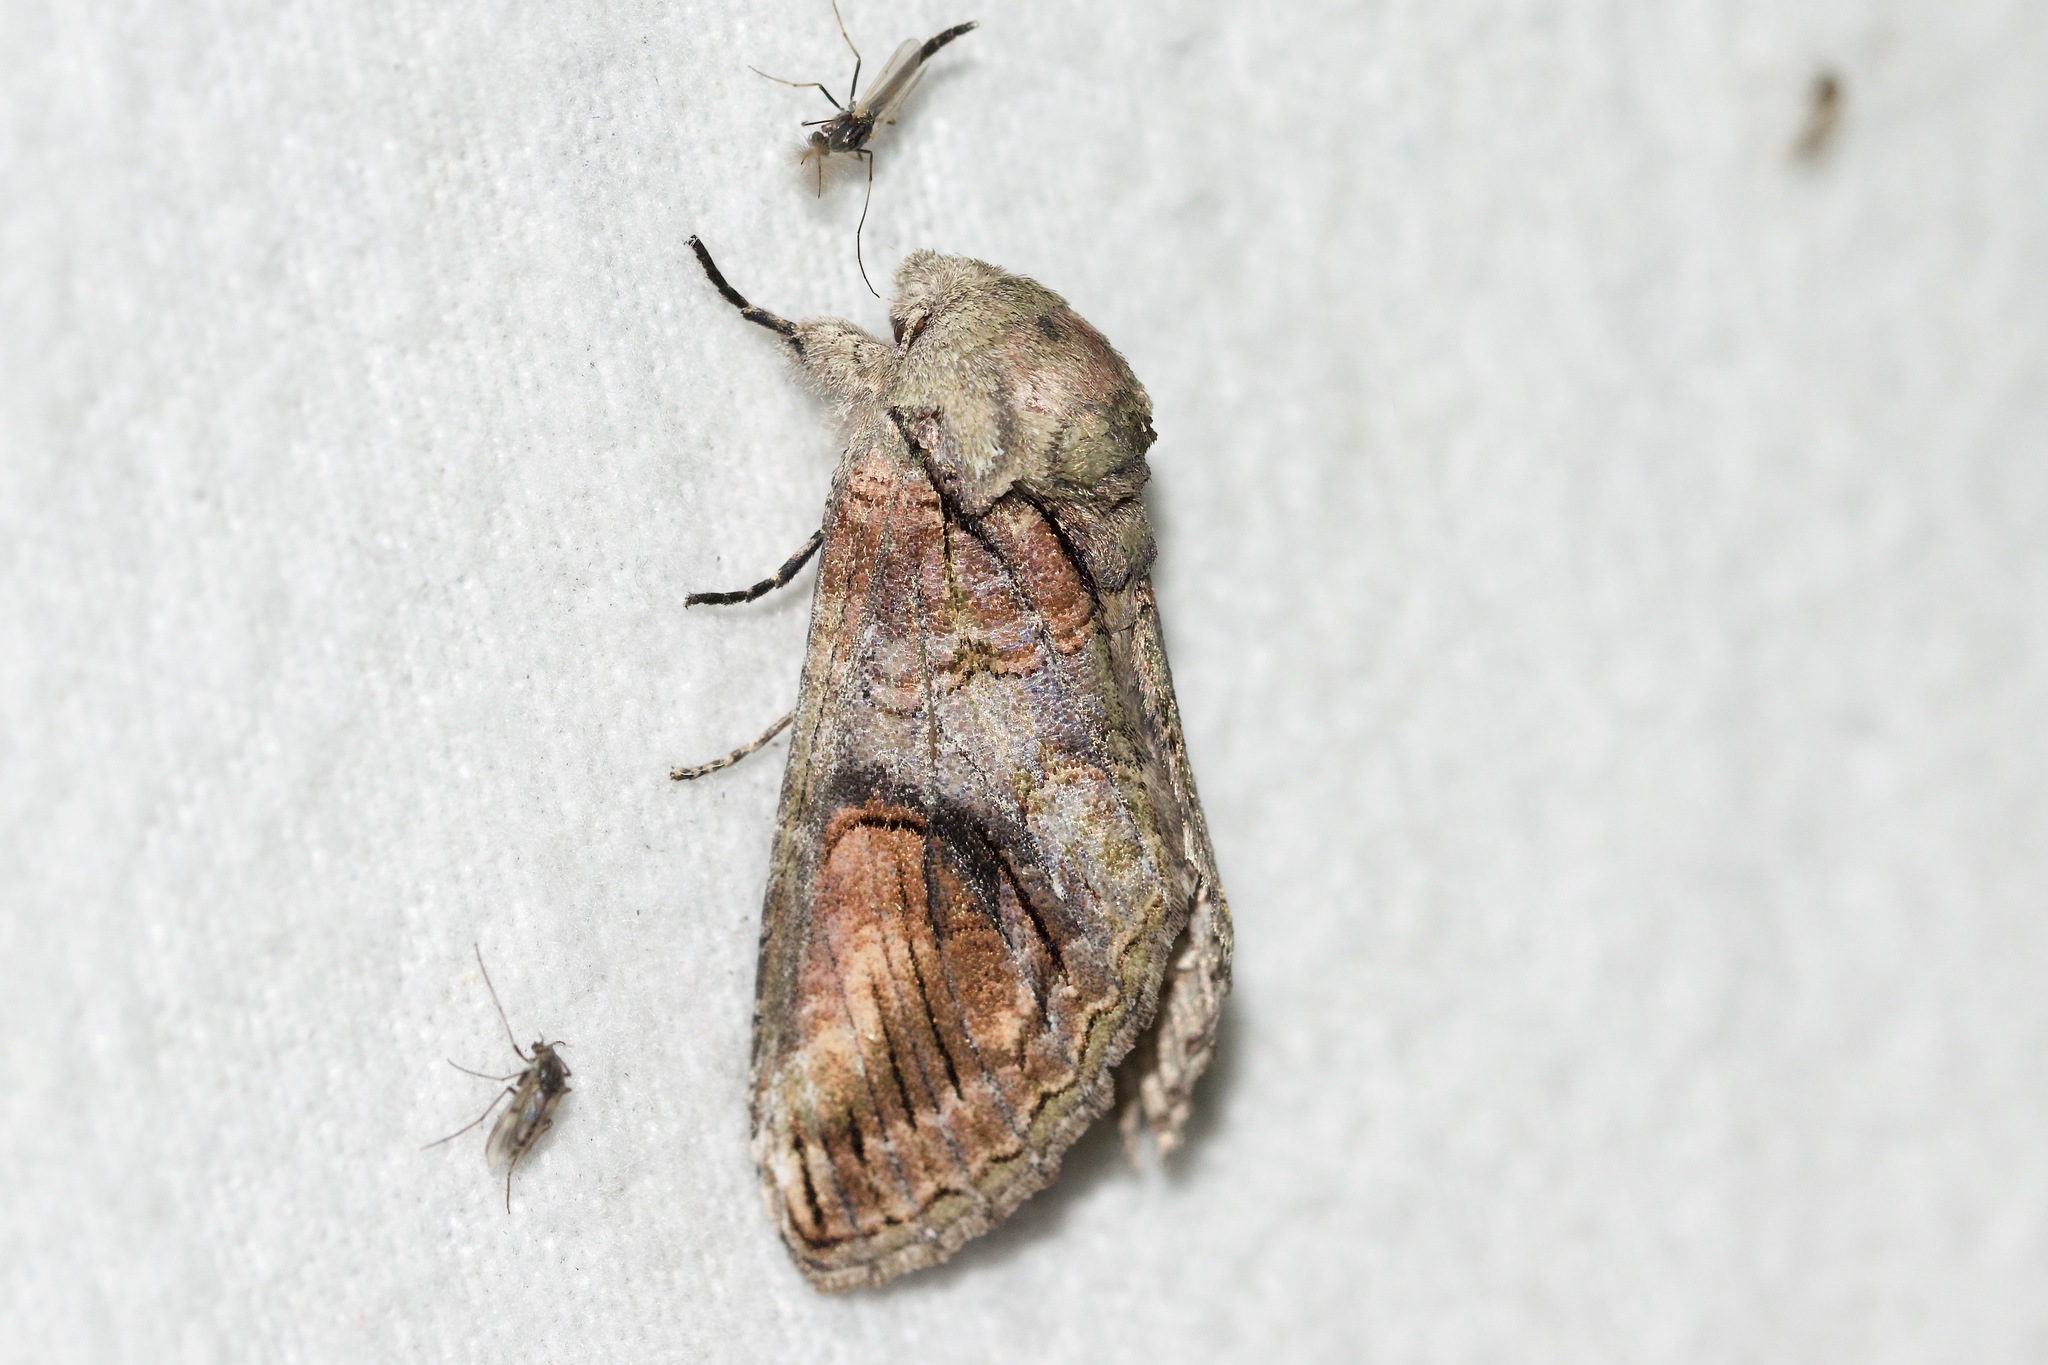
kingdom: Animalia
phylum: Arthropoda
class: Insecta
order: Lepidoptera
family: Notodontidae
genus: Heterocampa
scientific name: Heterocampa obliqua
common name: Oblique heterocampa
